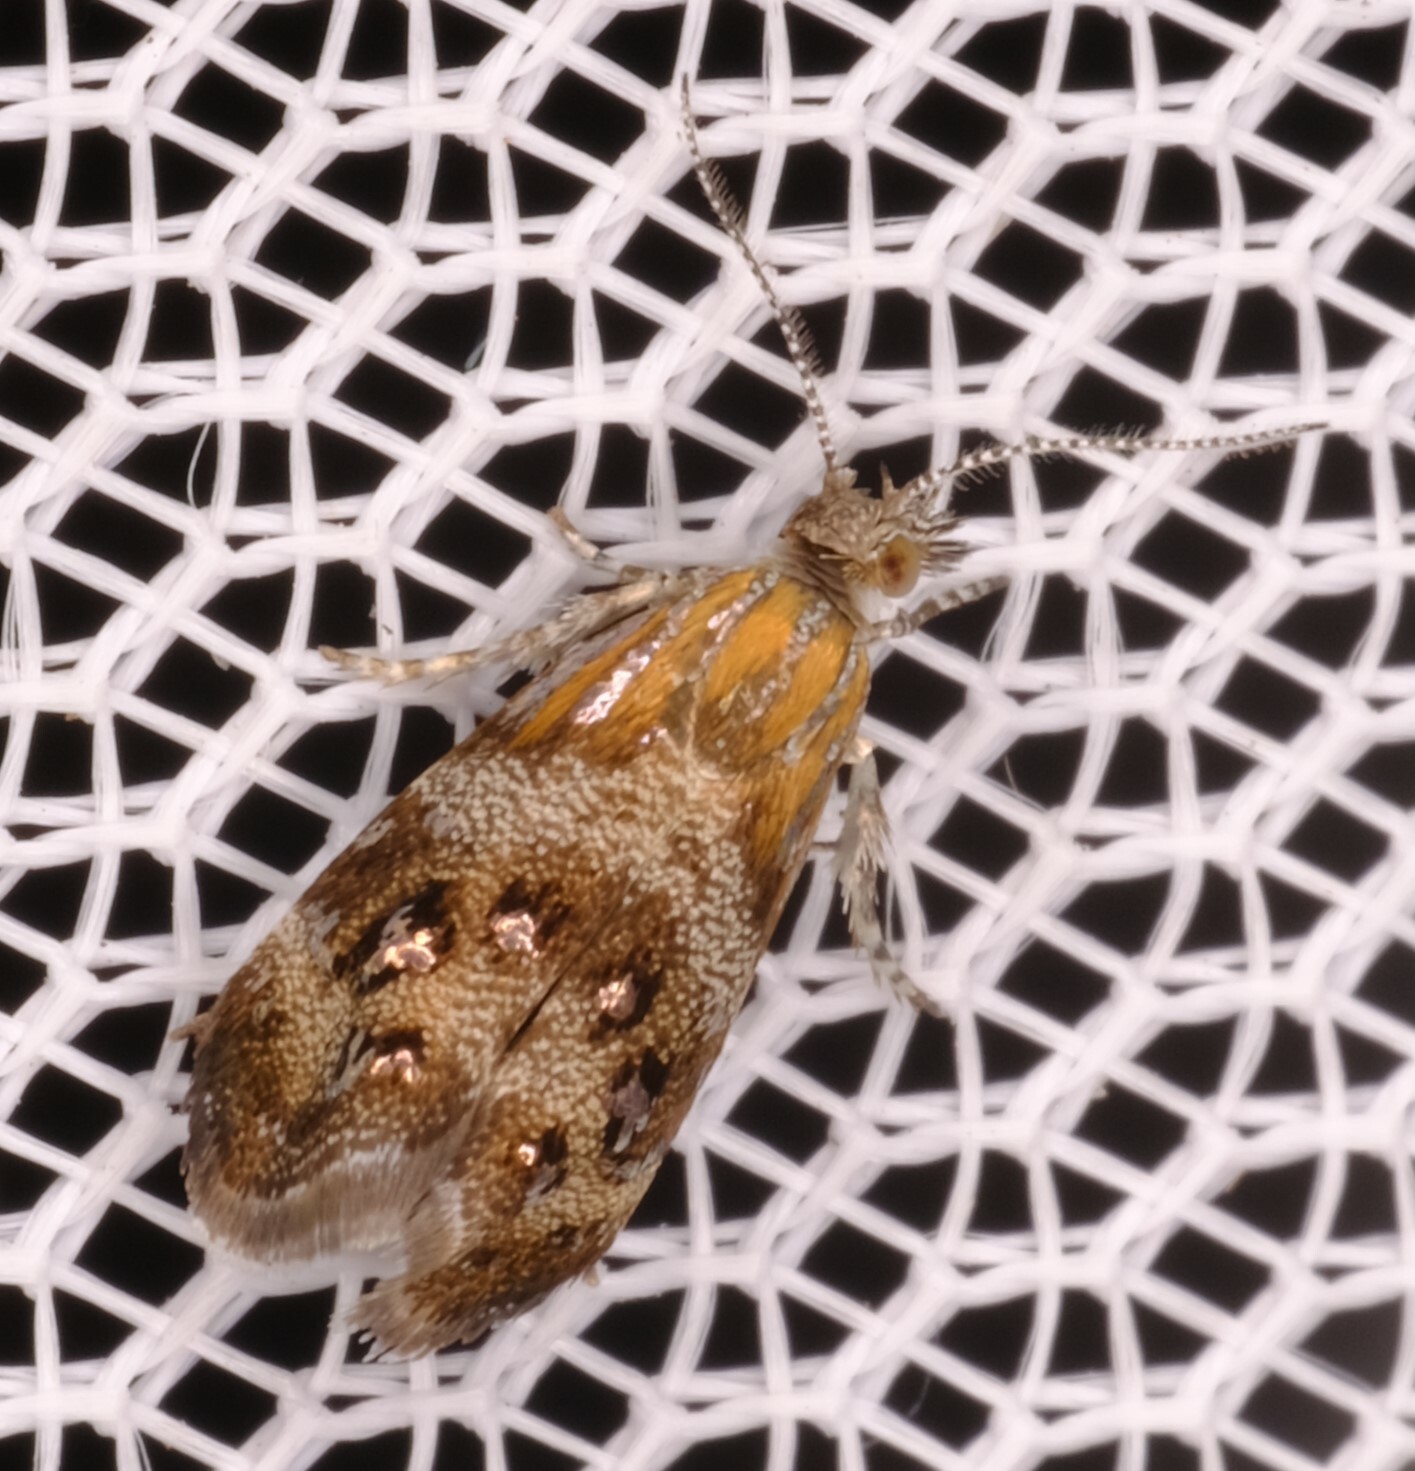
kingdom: Animalia
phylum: Arthropoda
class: Insecta
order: Lepidoptera
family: Choreutidae
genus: Tebenna
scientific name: Tebenna micalis
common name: Vagrant twitcher
